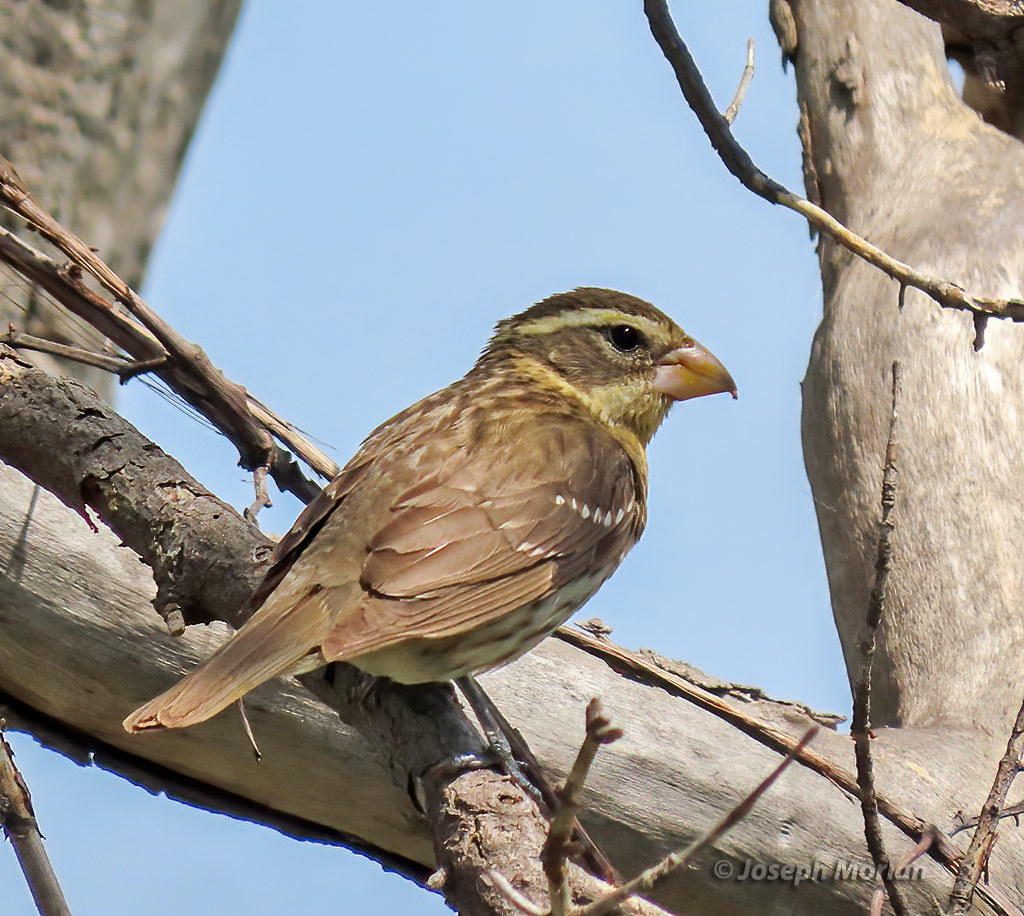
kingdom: Animalia
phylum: Chordata
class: Aves
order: Passeriformes
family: Cardinalidae
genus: Pheucticus
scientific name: Pheucticus ludovicianus
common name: Rose-breasted grosbeak
